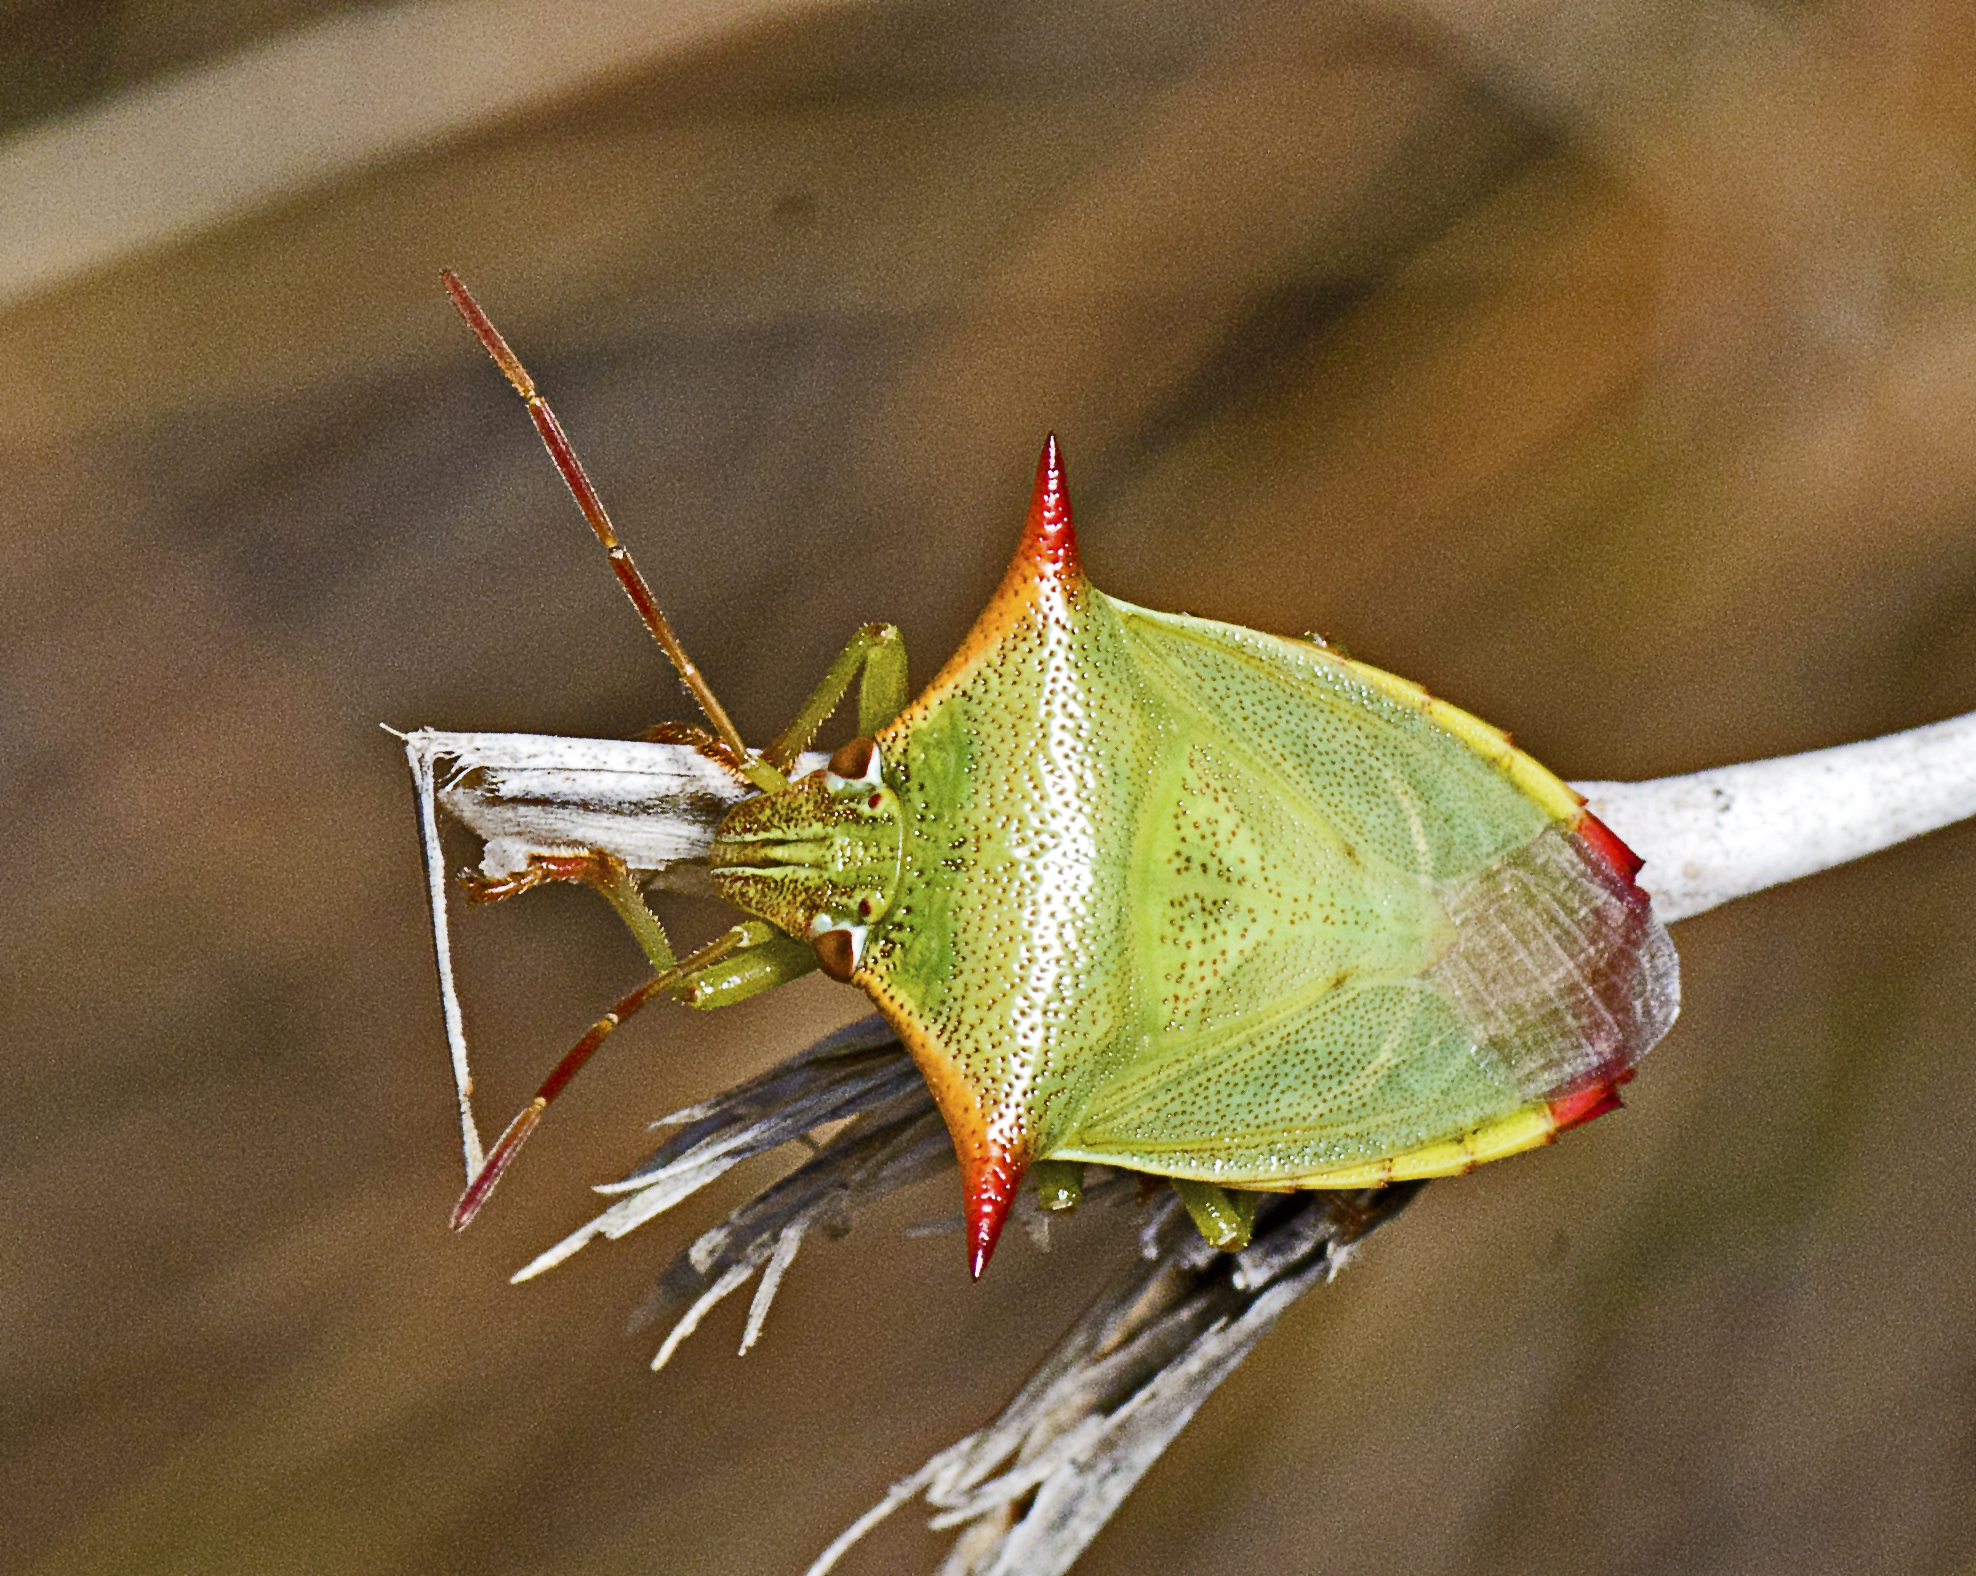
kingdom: Animalia
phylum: Arthropoda
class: Insecta
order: Hemiptera
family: Pentatomidae
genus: Avicenna
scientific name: Avicenna
